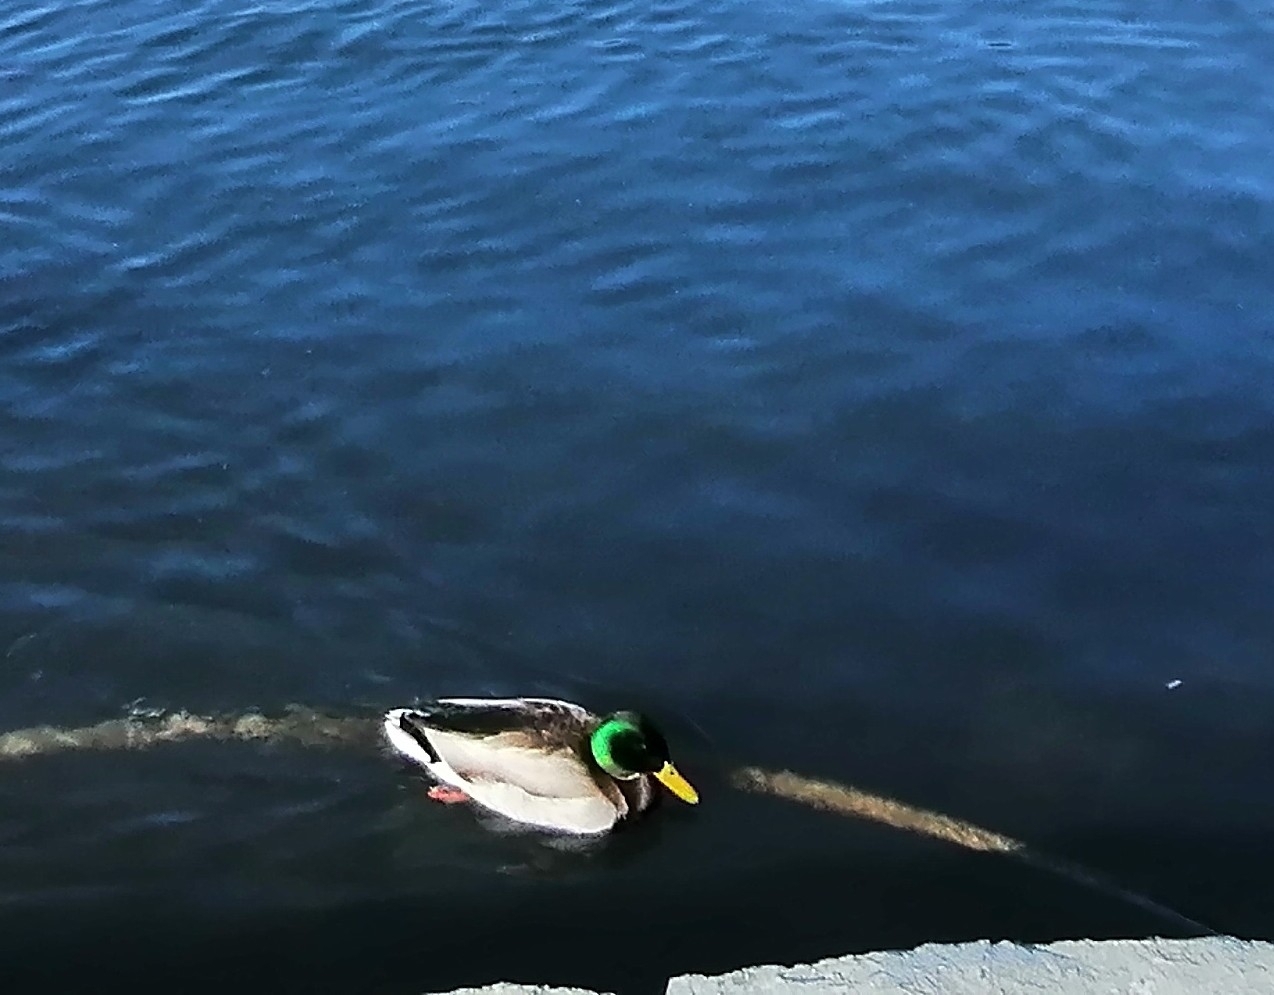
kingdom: Animalia
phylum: Chordata
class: Aves
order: Anseriformes
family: Anatidae
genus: Anas
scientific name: Anas platyrhynchos
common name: Mallard
